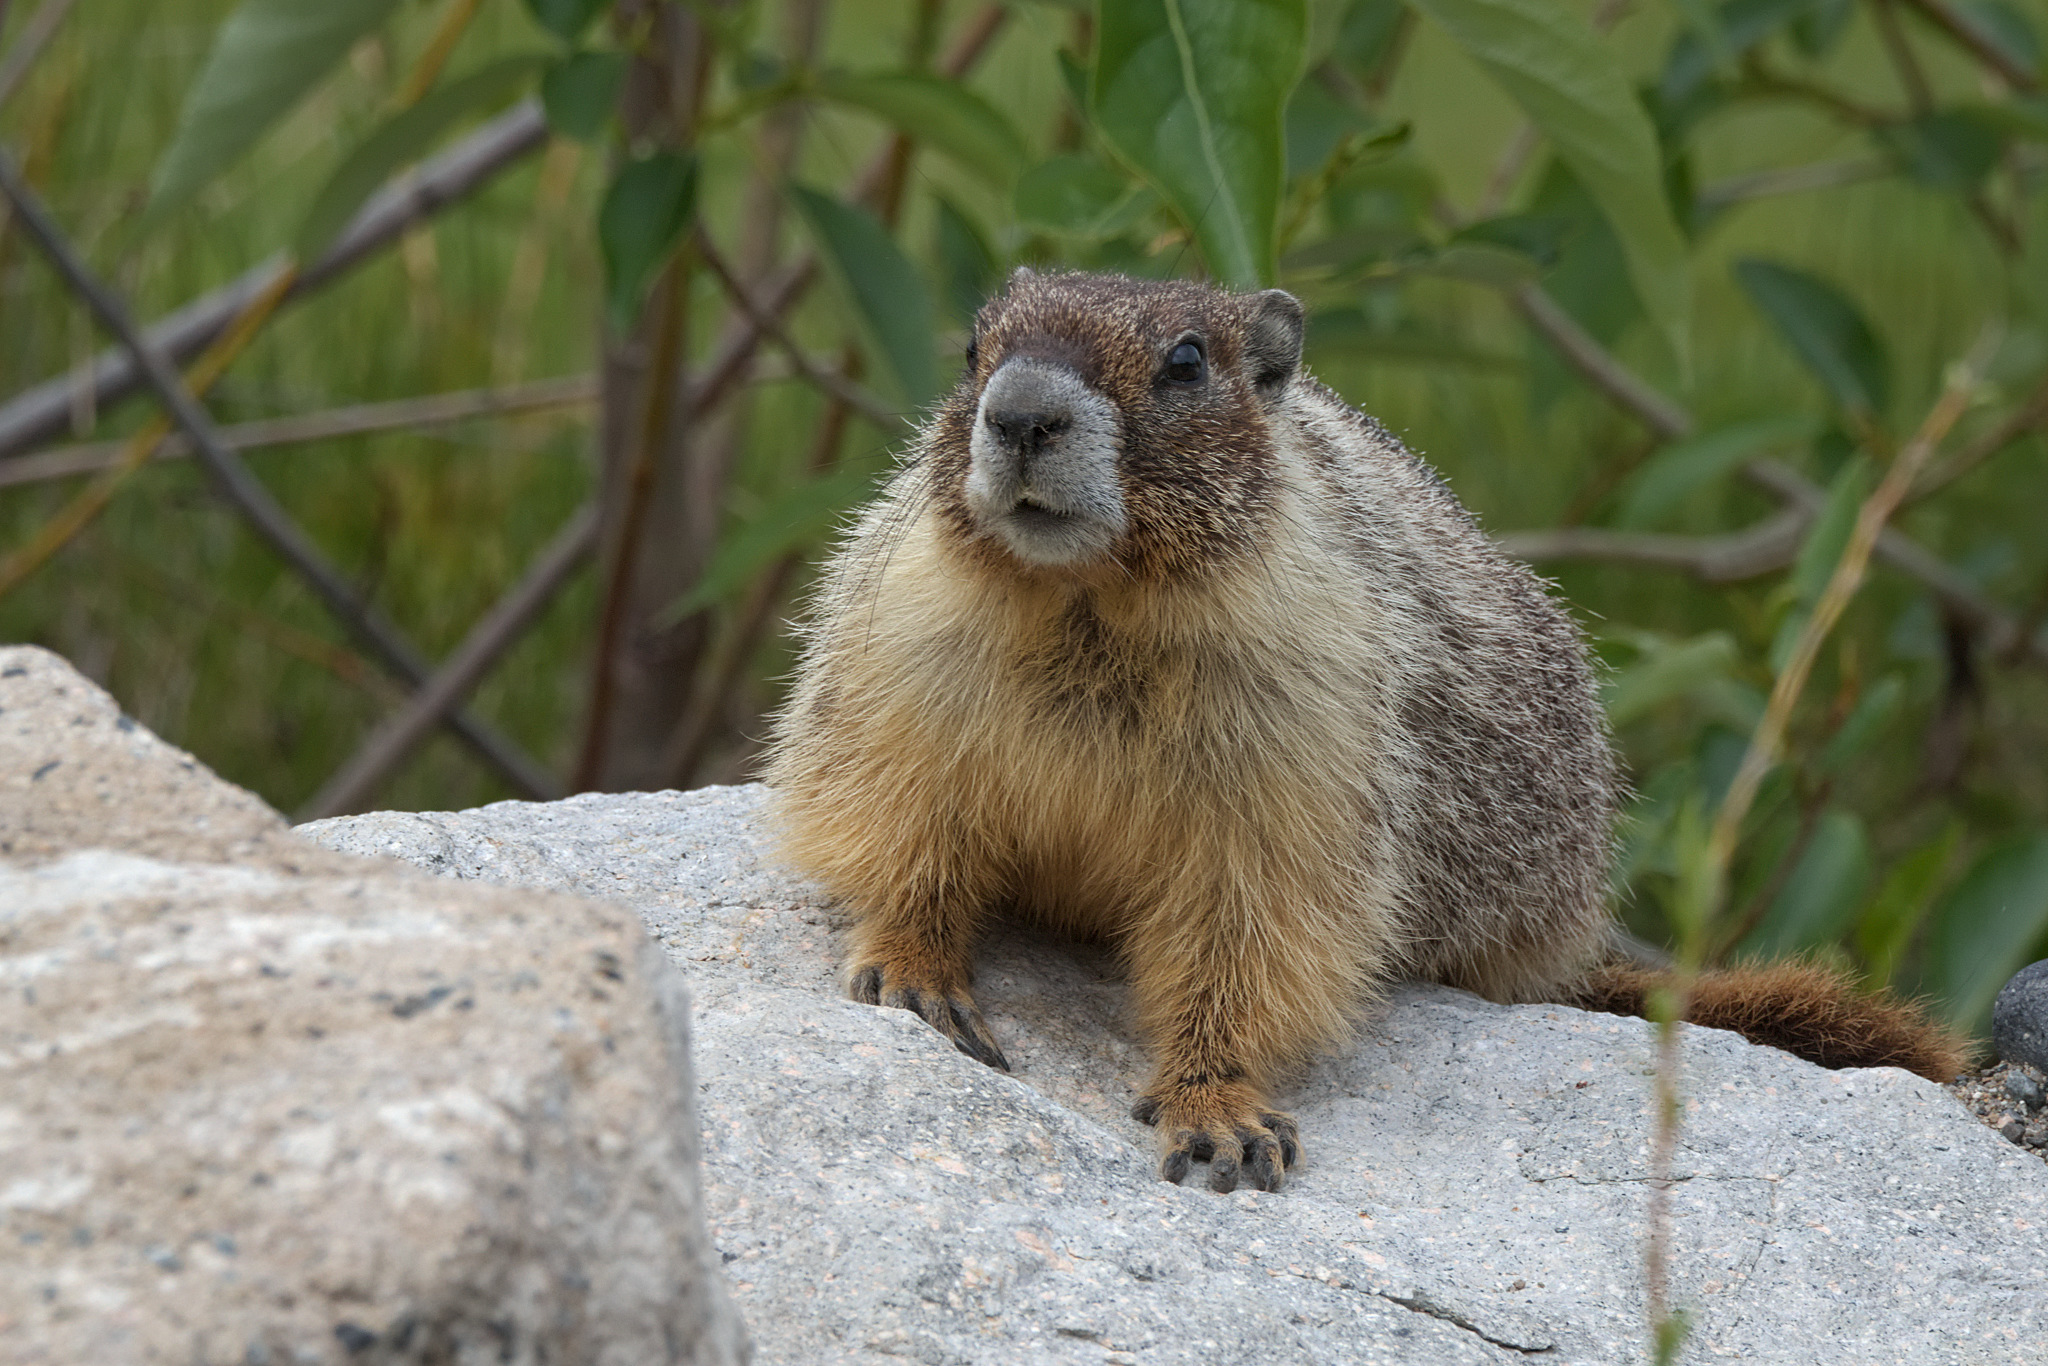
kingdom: Animalia
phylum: Chordata
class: Mammalia
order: Rodentia
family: Sciuridae
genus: Marmota
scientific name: Marmota flaviventris
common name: Yellow-bellied marmot
